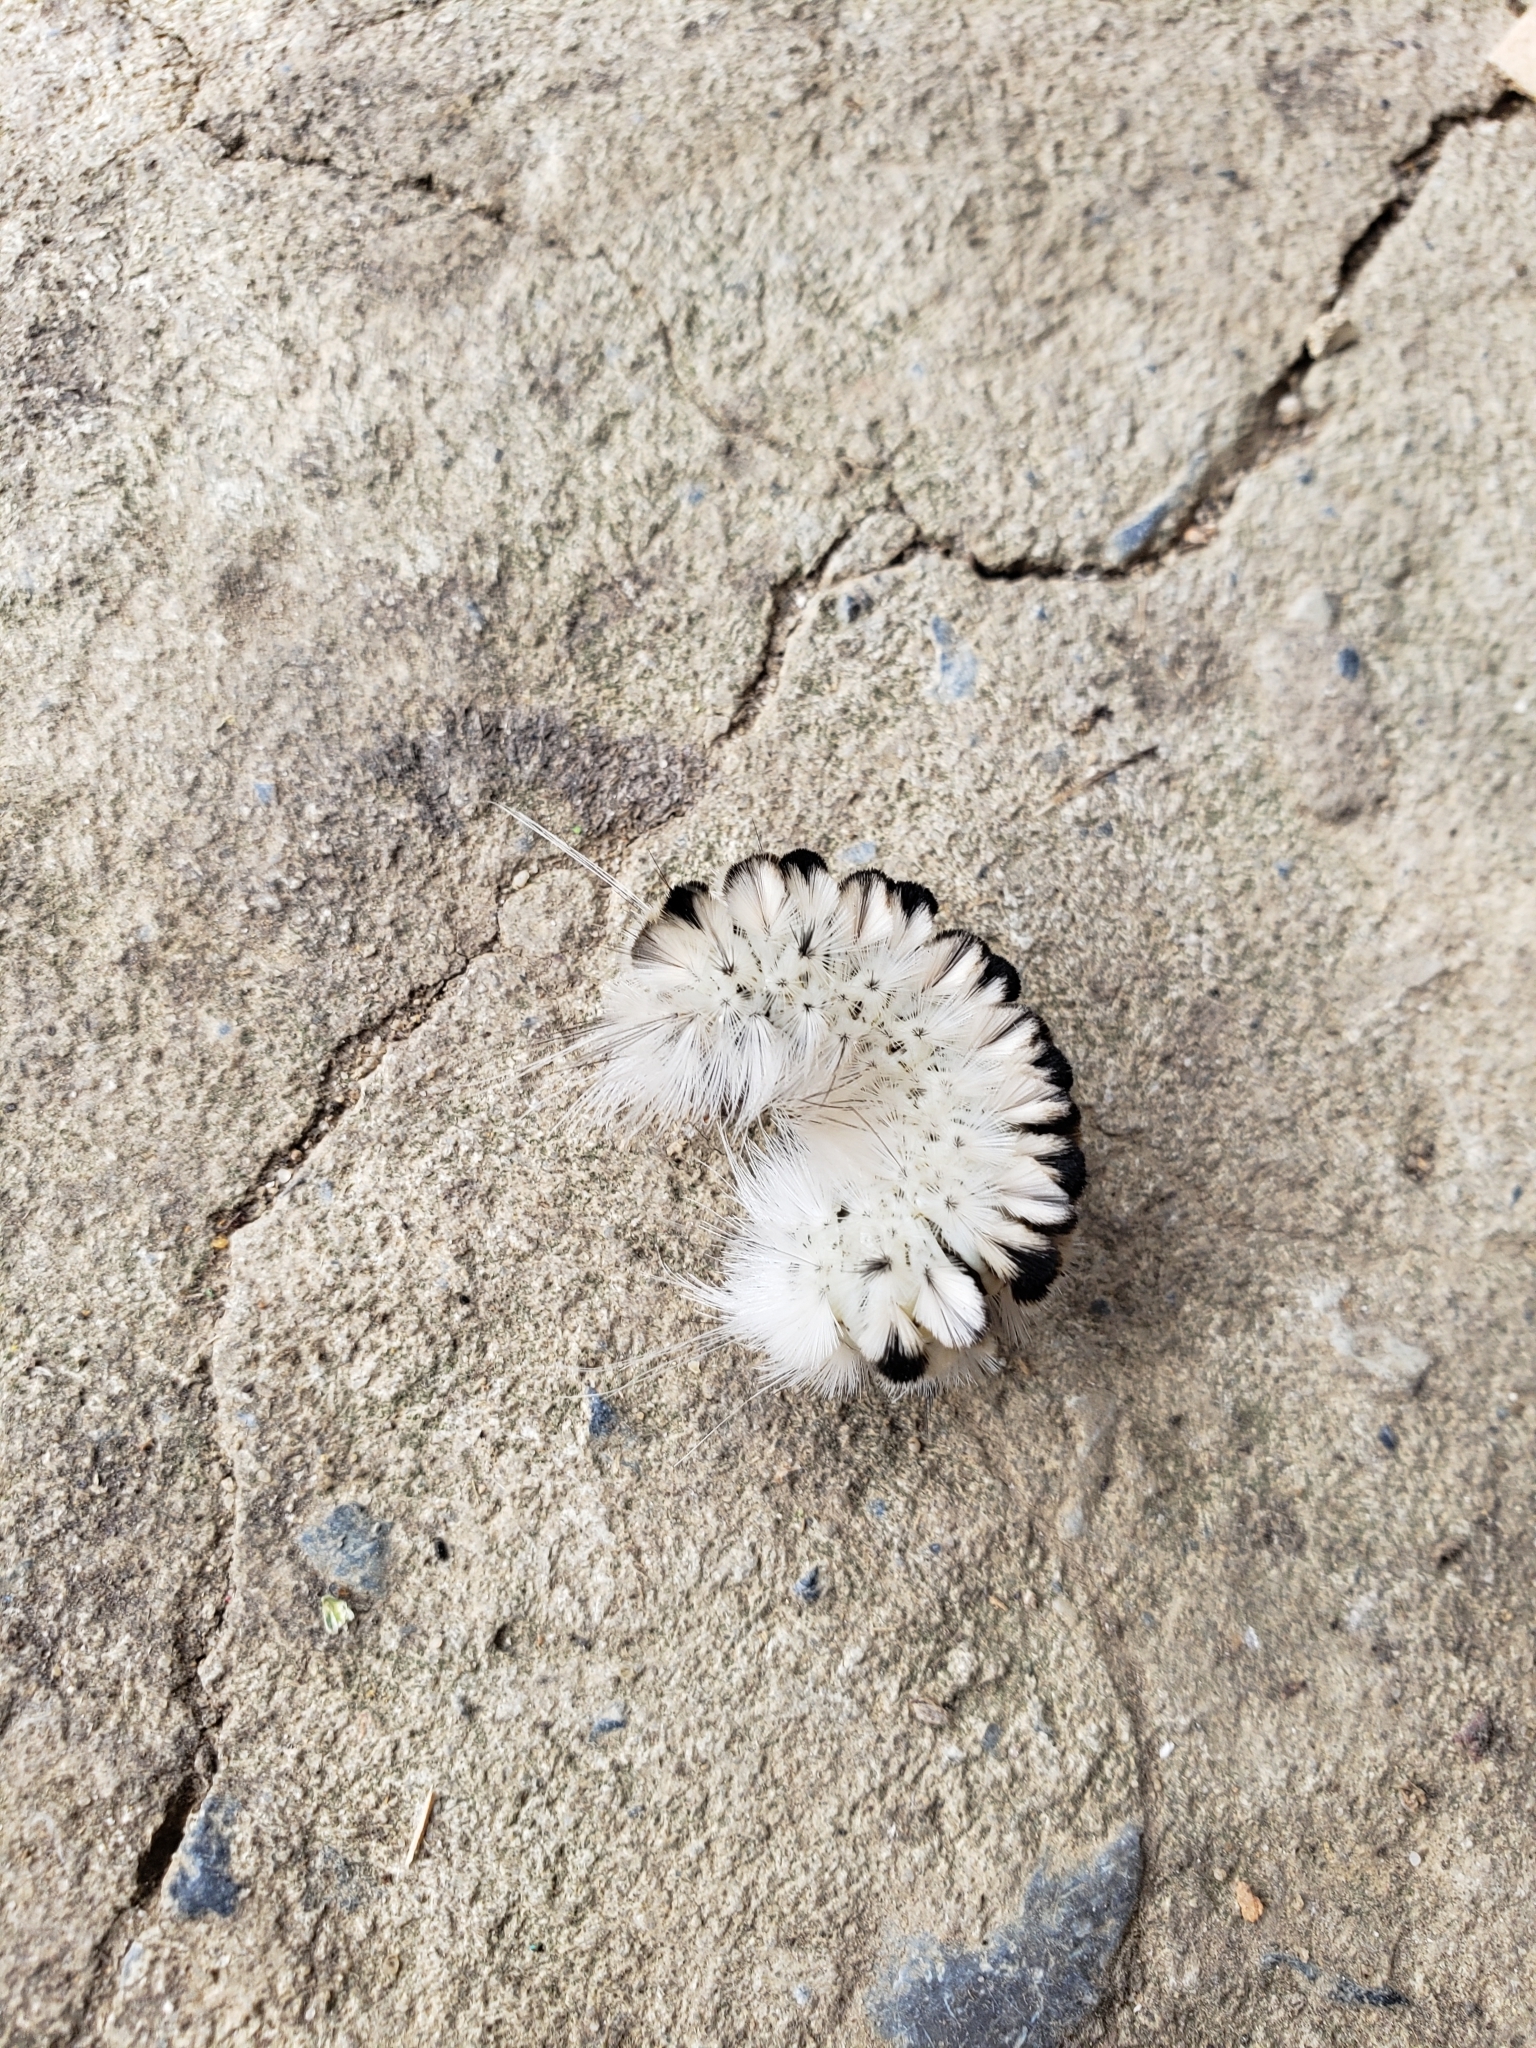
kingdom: Animalia
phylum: Arthropoda
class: Insecta
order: Lepidoptera
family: Erebidae
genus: Lophocampa
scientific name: Lophocampa caryae
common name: Hickory tussock moth
